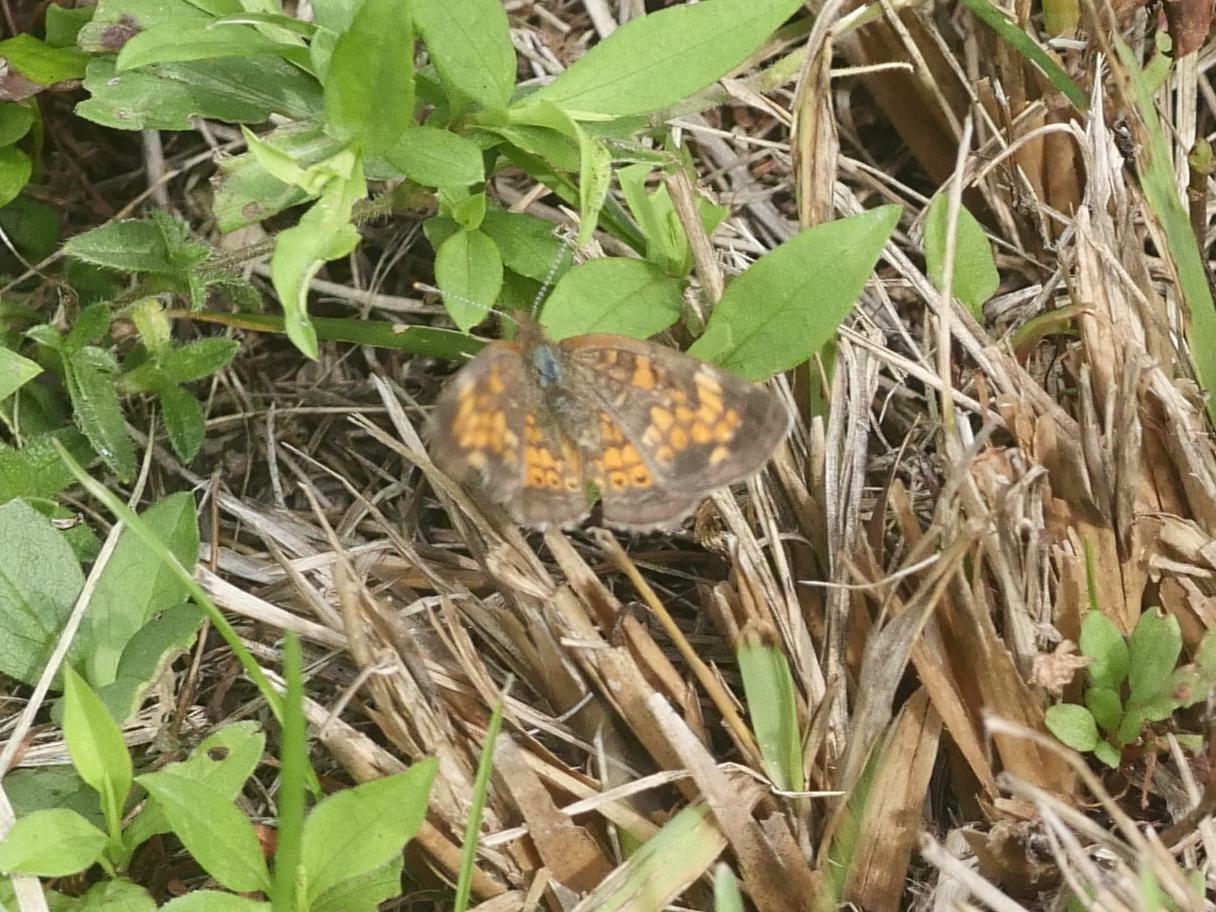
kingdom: Animalia
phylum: Arthropoda
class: Insecta
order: Lepidoptera
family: Nymphalidae
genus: Phyciodes
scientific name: Phyciodes tharos
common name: Pearl crescent
